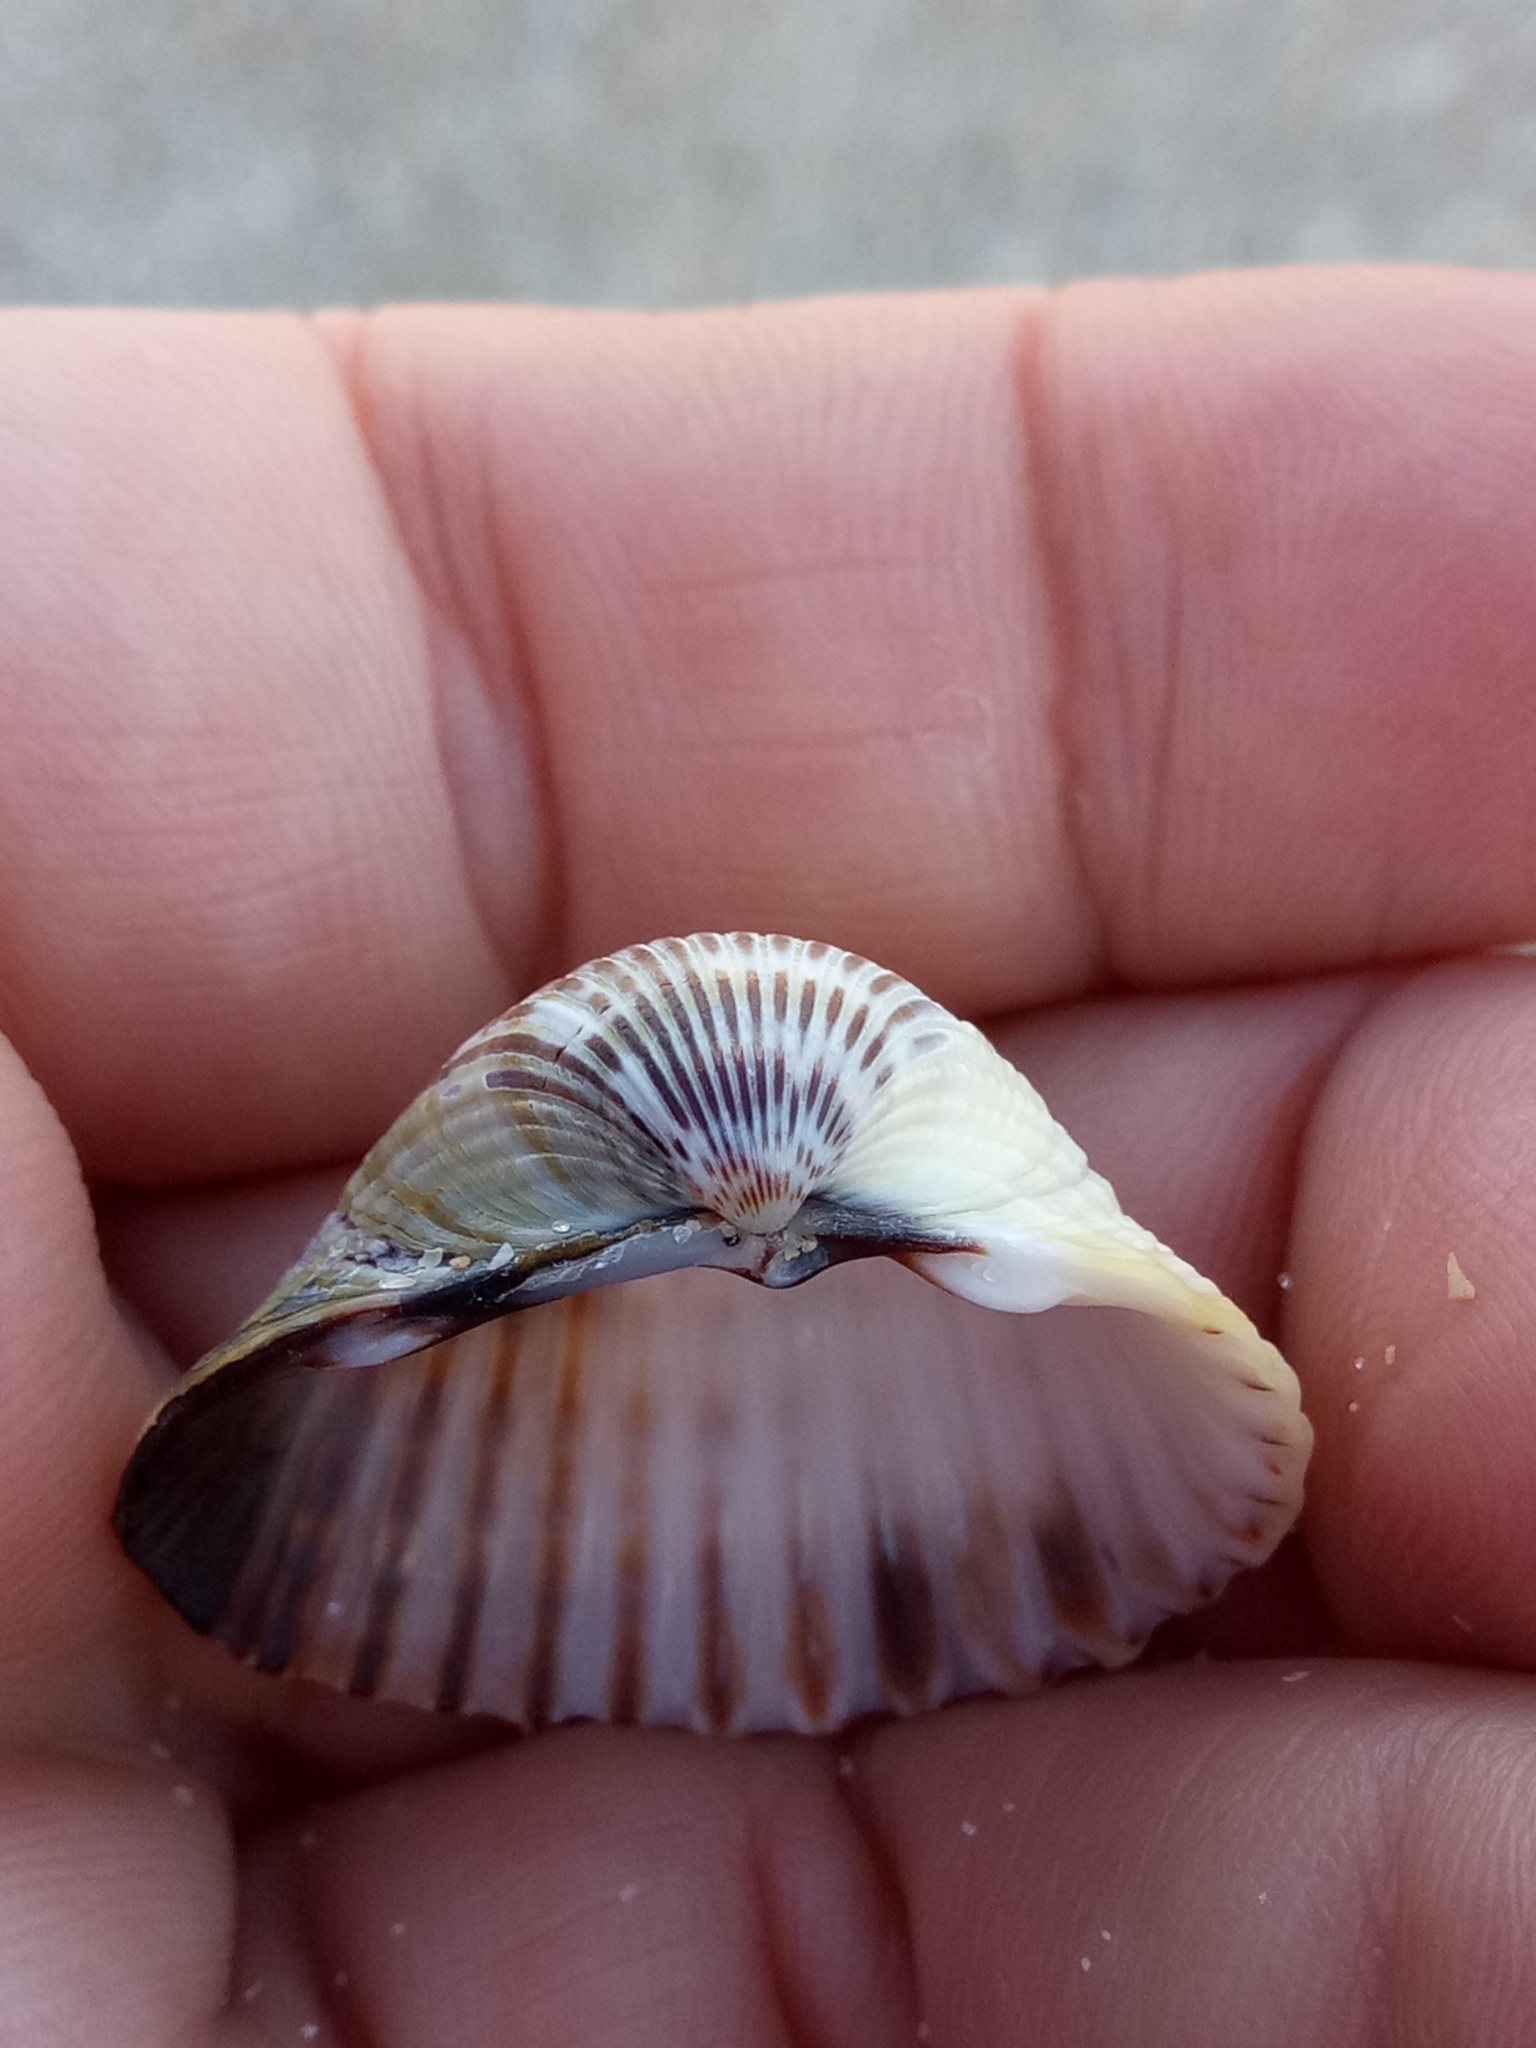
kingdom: Animalia
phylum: Mollusca
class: Bivalvia
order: Cardiida
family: Cardiidae
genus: Cerastoderma
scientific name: Cerastoderma glaucum
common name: Lagoon cockle
